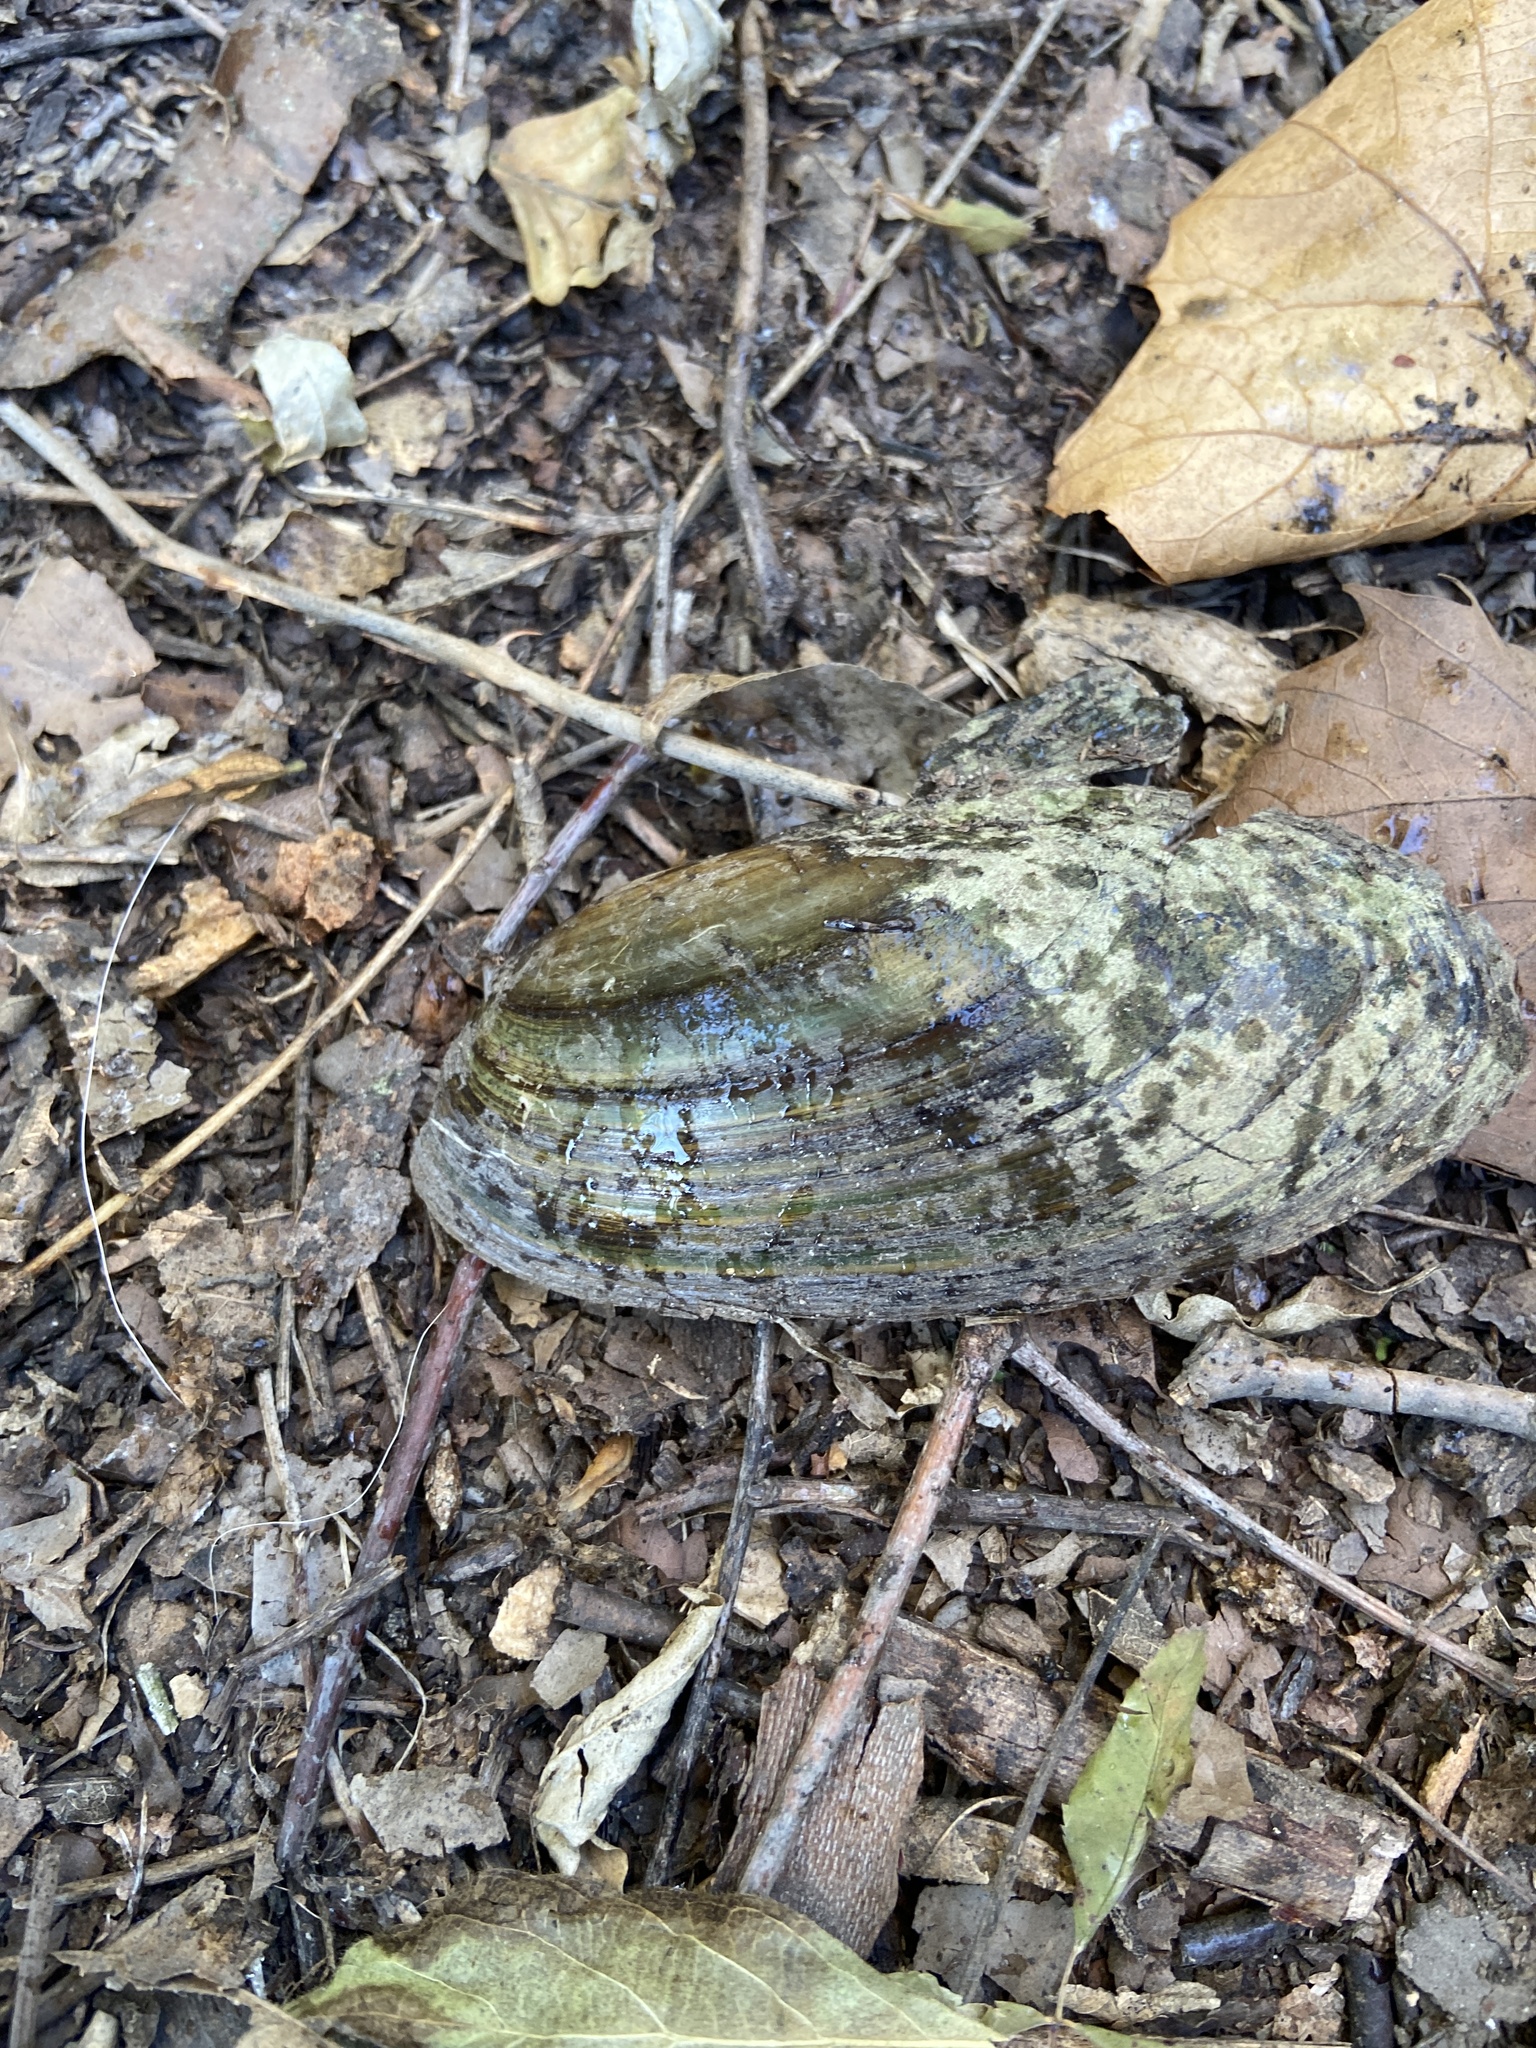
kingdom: Animalia
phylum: Mollusca
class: Bivalvia
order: Unionida
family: Unionidae
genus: Utterbackia
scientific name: Utterbackia imbecillis
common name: Paper pondshell
